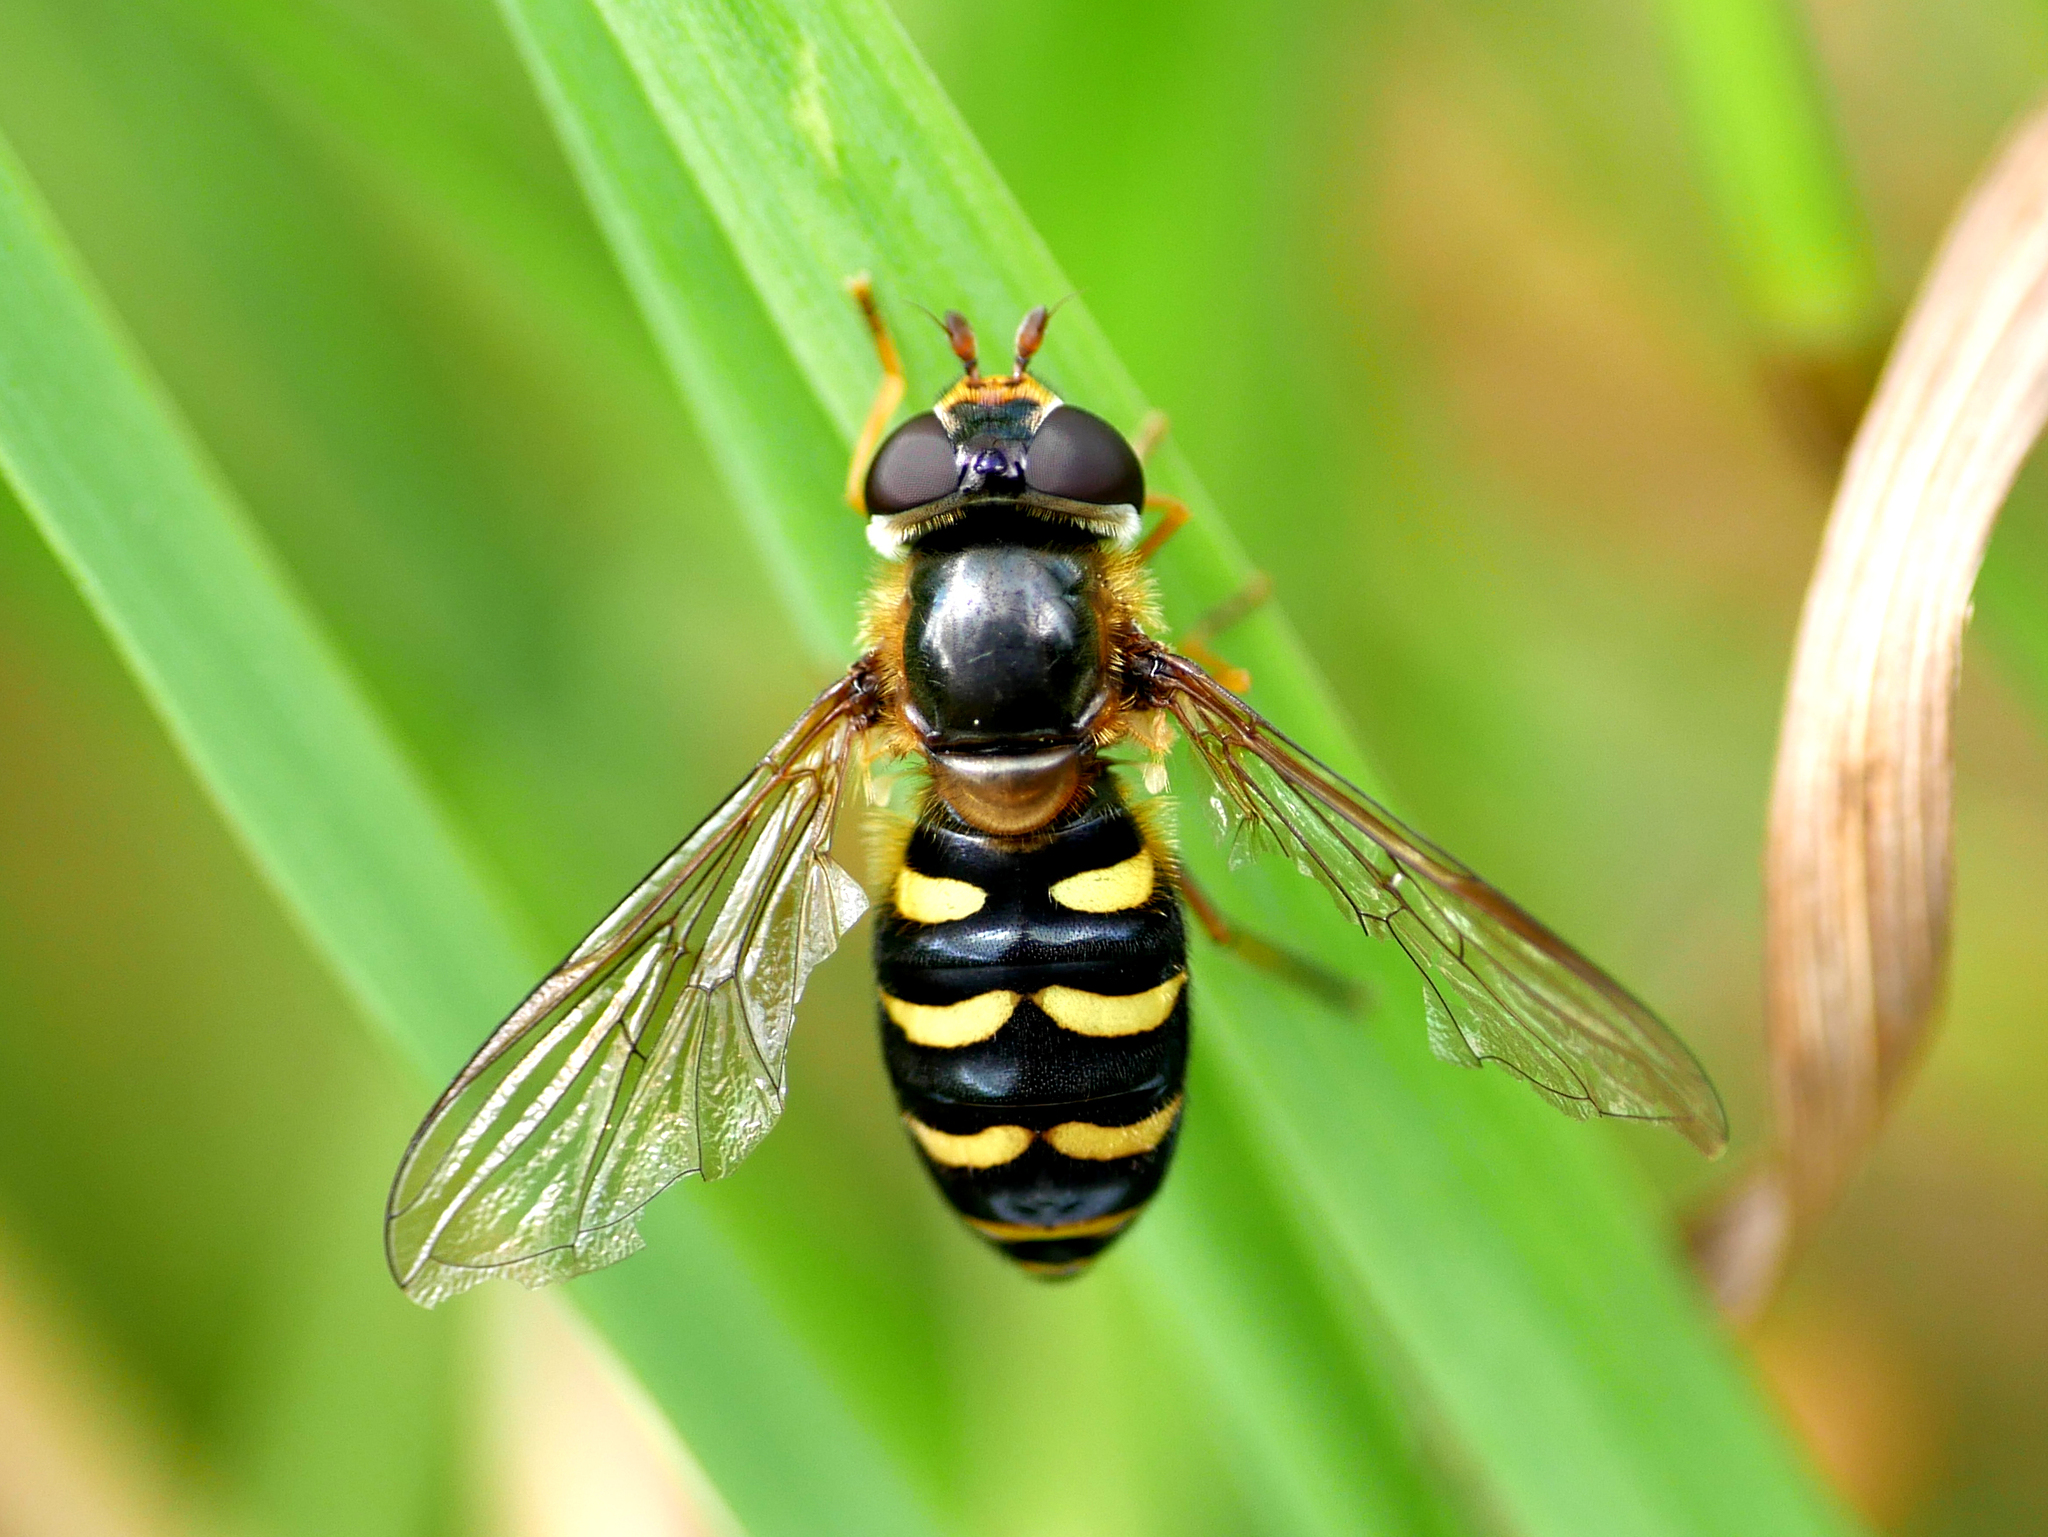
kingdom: Animalia
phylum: Arthropoda
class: Insecta
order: Diptera
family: Syrphidae
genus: Eupeodes
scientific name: Eupeodes nitens
